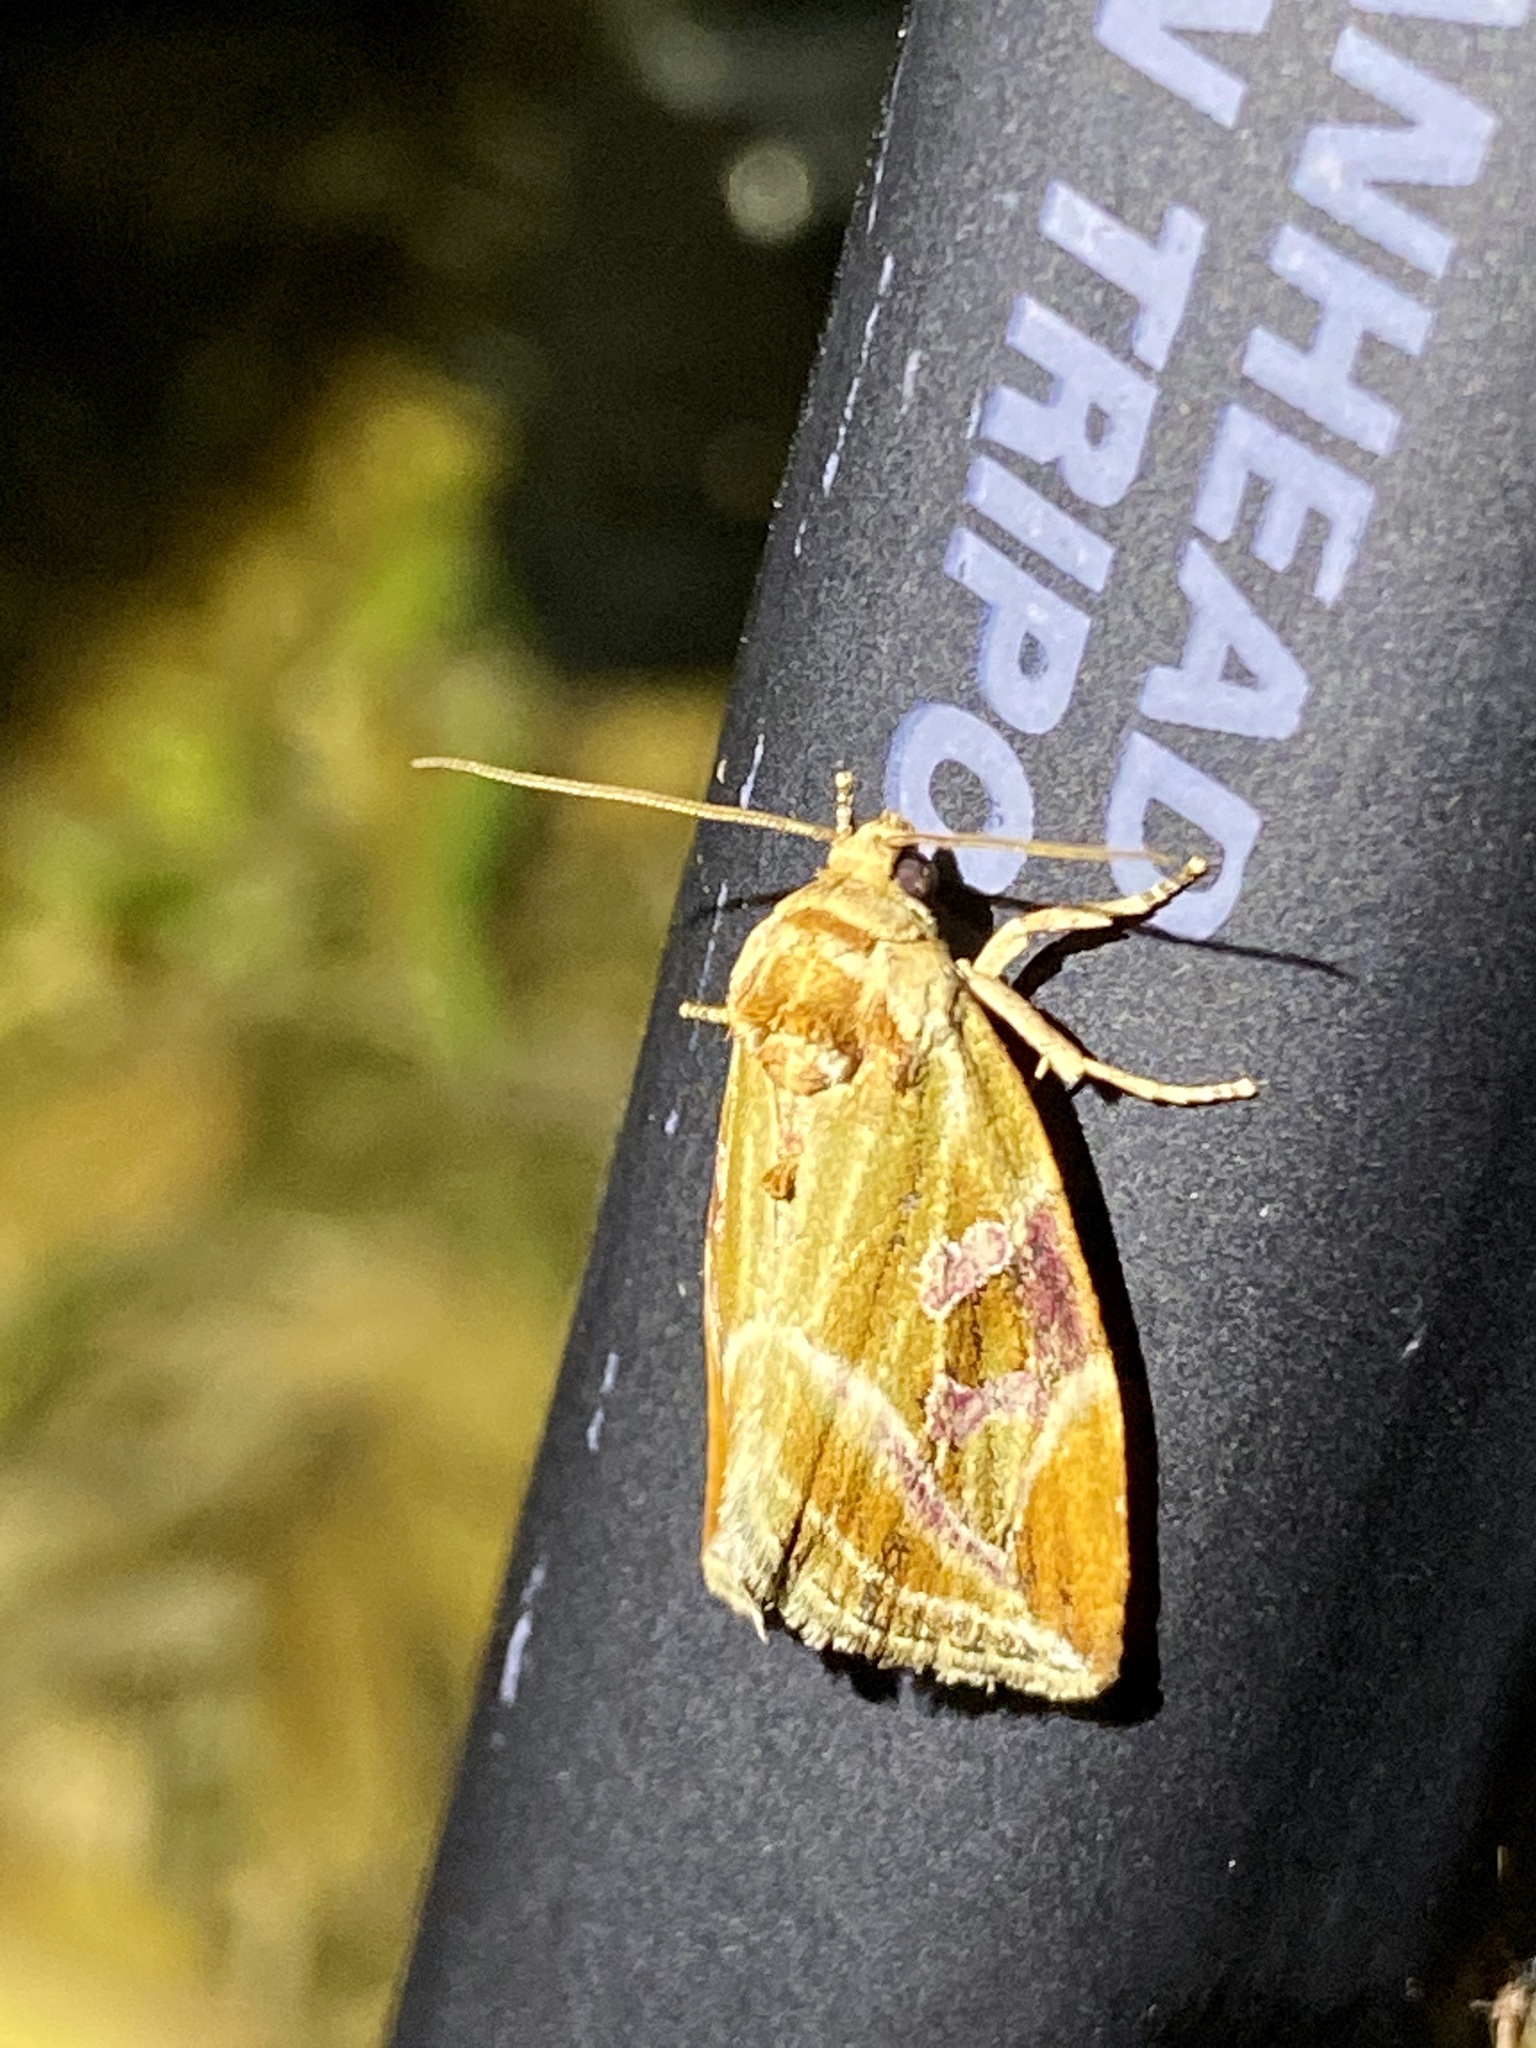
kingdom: Animalia
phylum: Arthropoda
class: Insecta
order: Lepidoptera
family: Noctuidae
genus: Micardia
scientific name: Micardia pulchra
